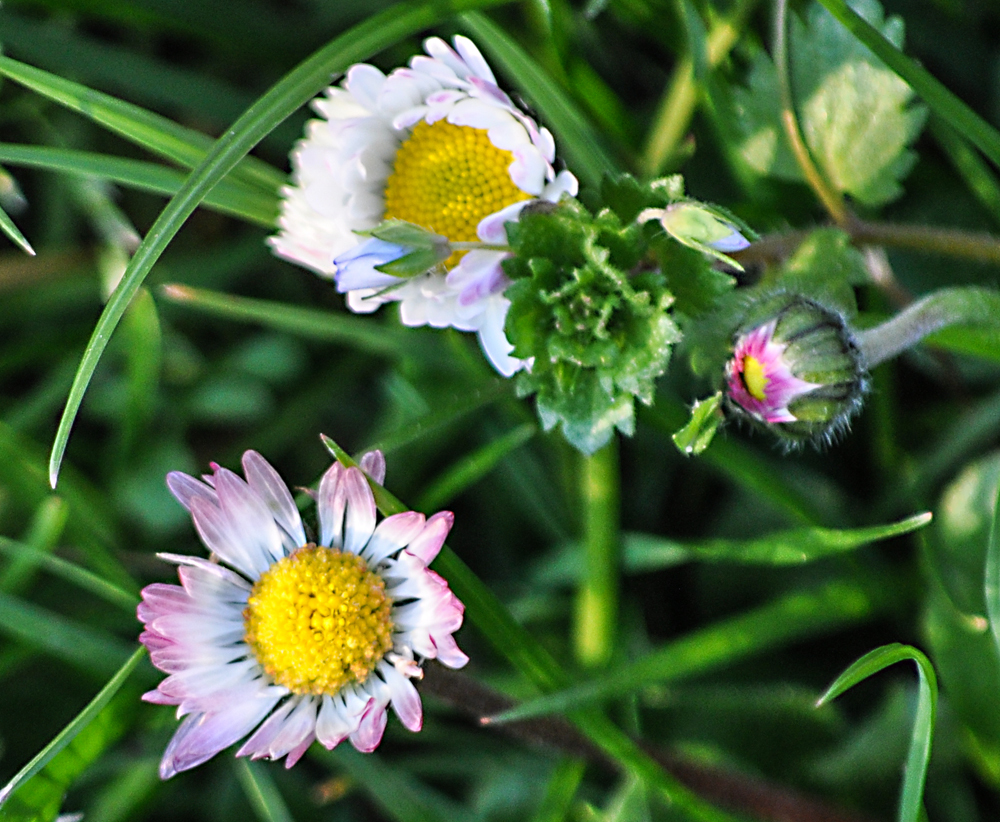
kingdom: Plantae
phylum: Tracheophyta
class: Magnoliopsida
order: Asterales
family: Asteraceae
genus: Bellis
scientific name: Bellis perennis
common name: Lawndaisy
